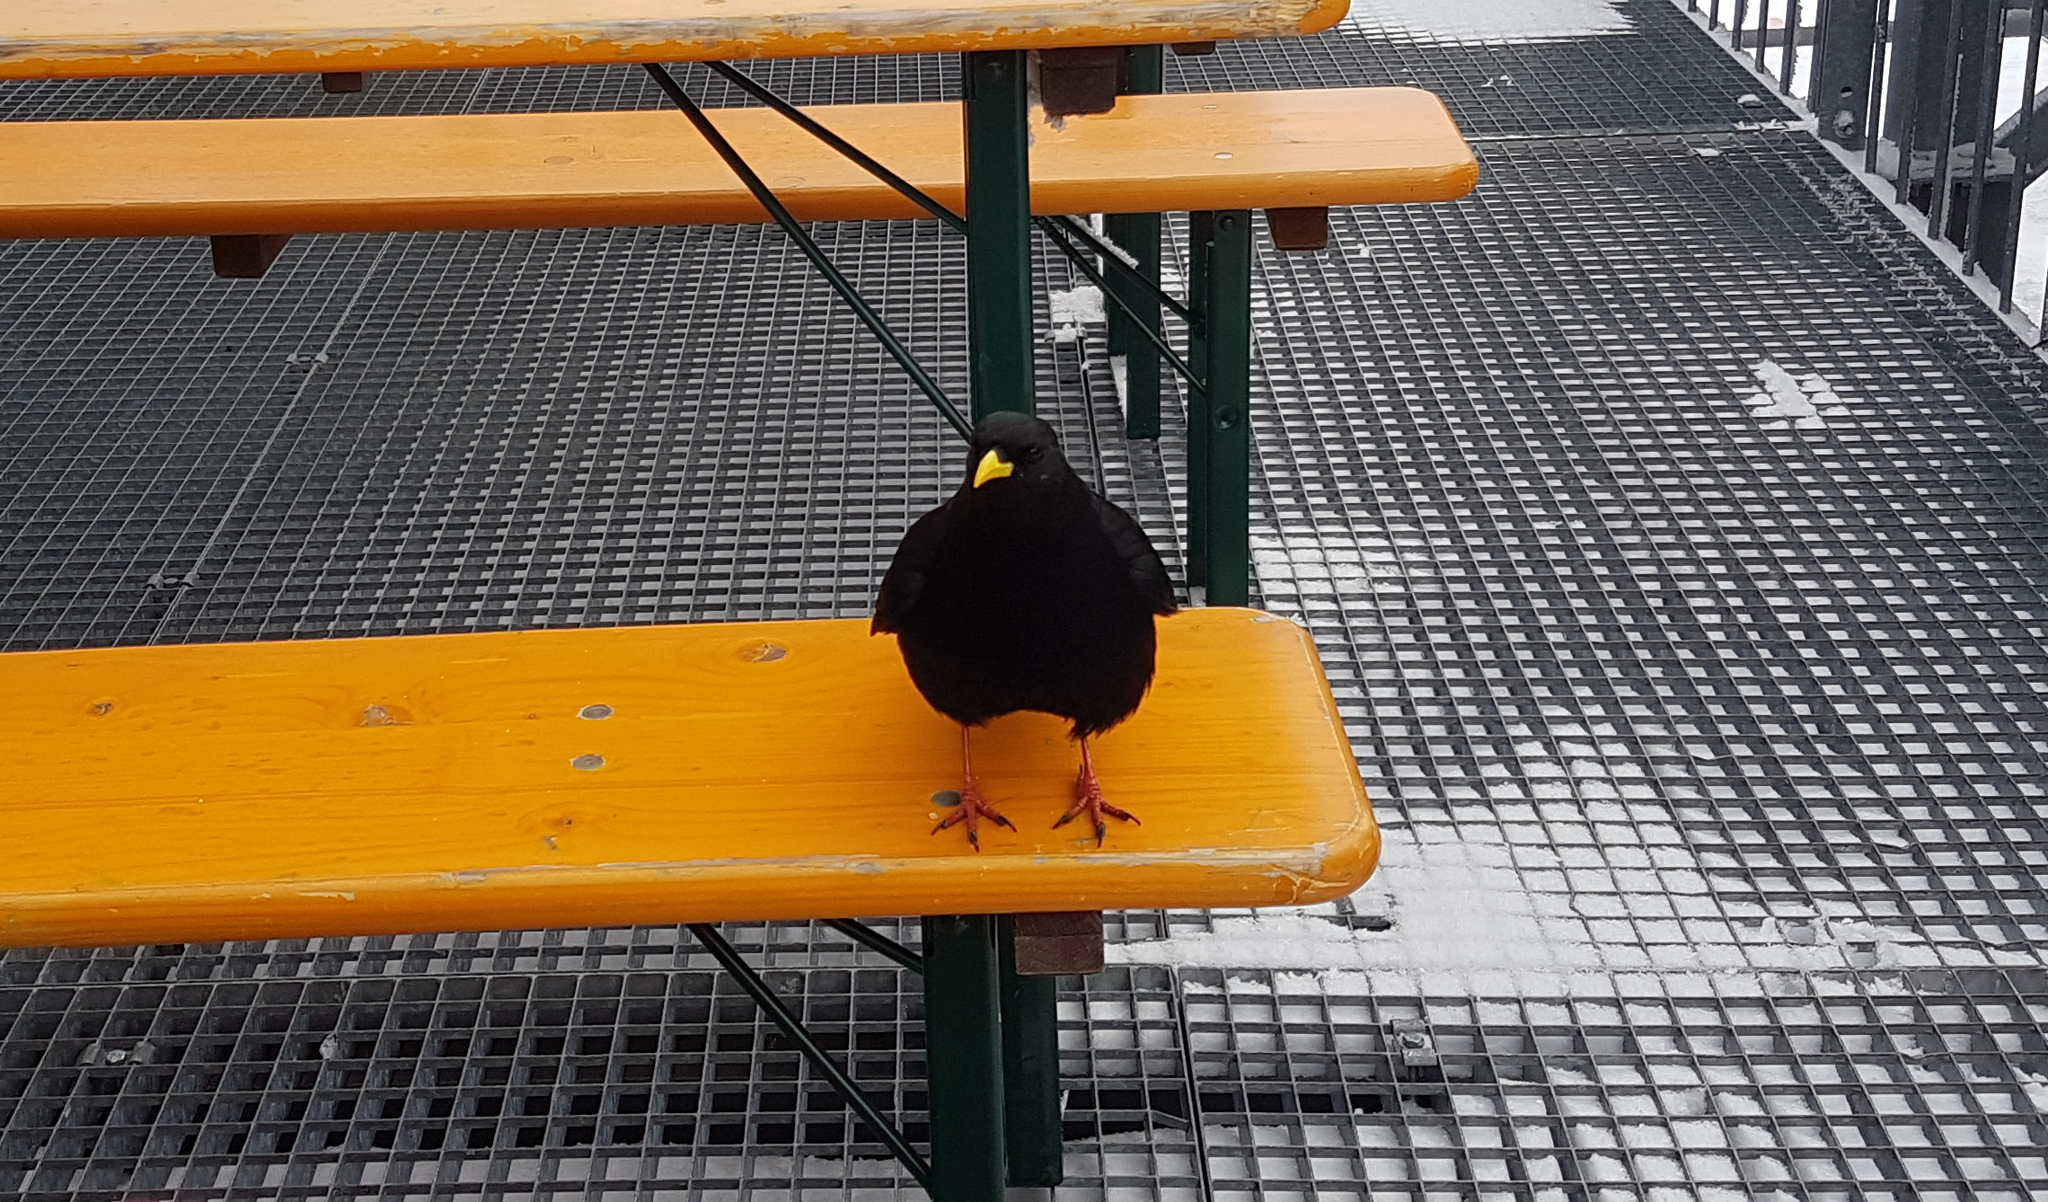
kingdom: Animalia
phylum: Chordata
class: Aves
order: Passeriformes
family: Corvidae
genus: Pyrrhocorax
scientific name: Pyrrhocorax graculus
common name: Alpine chough
